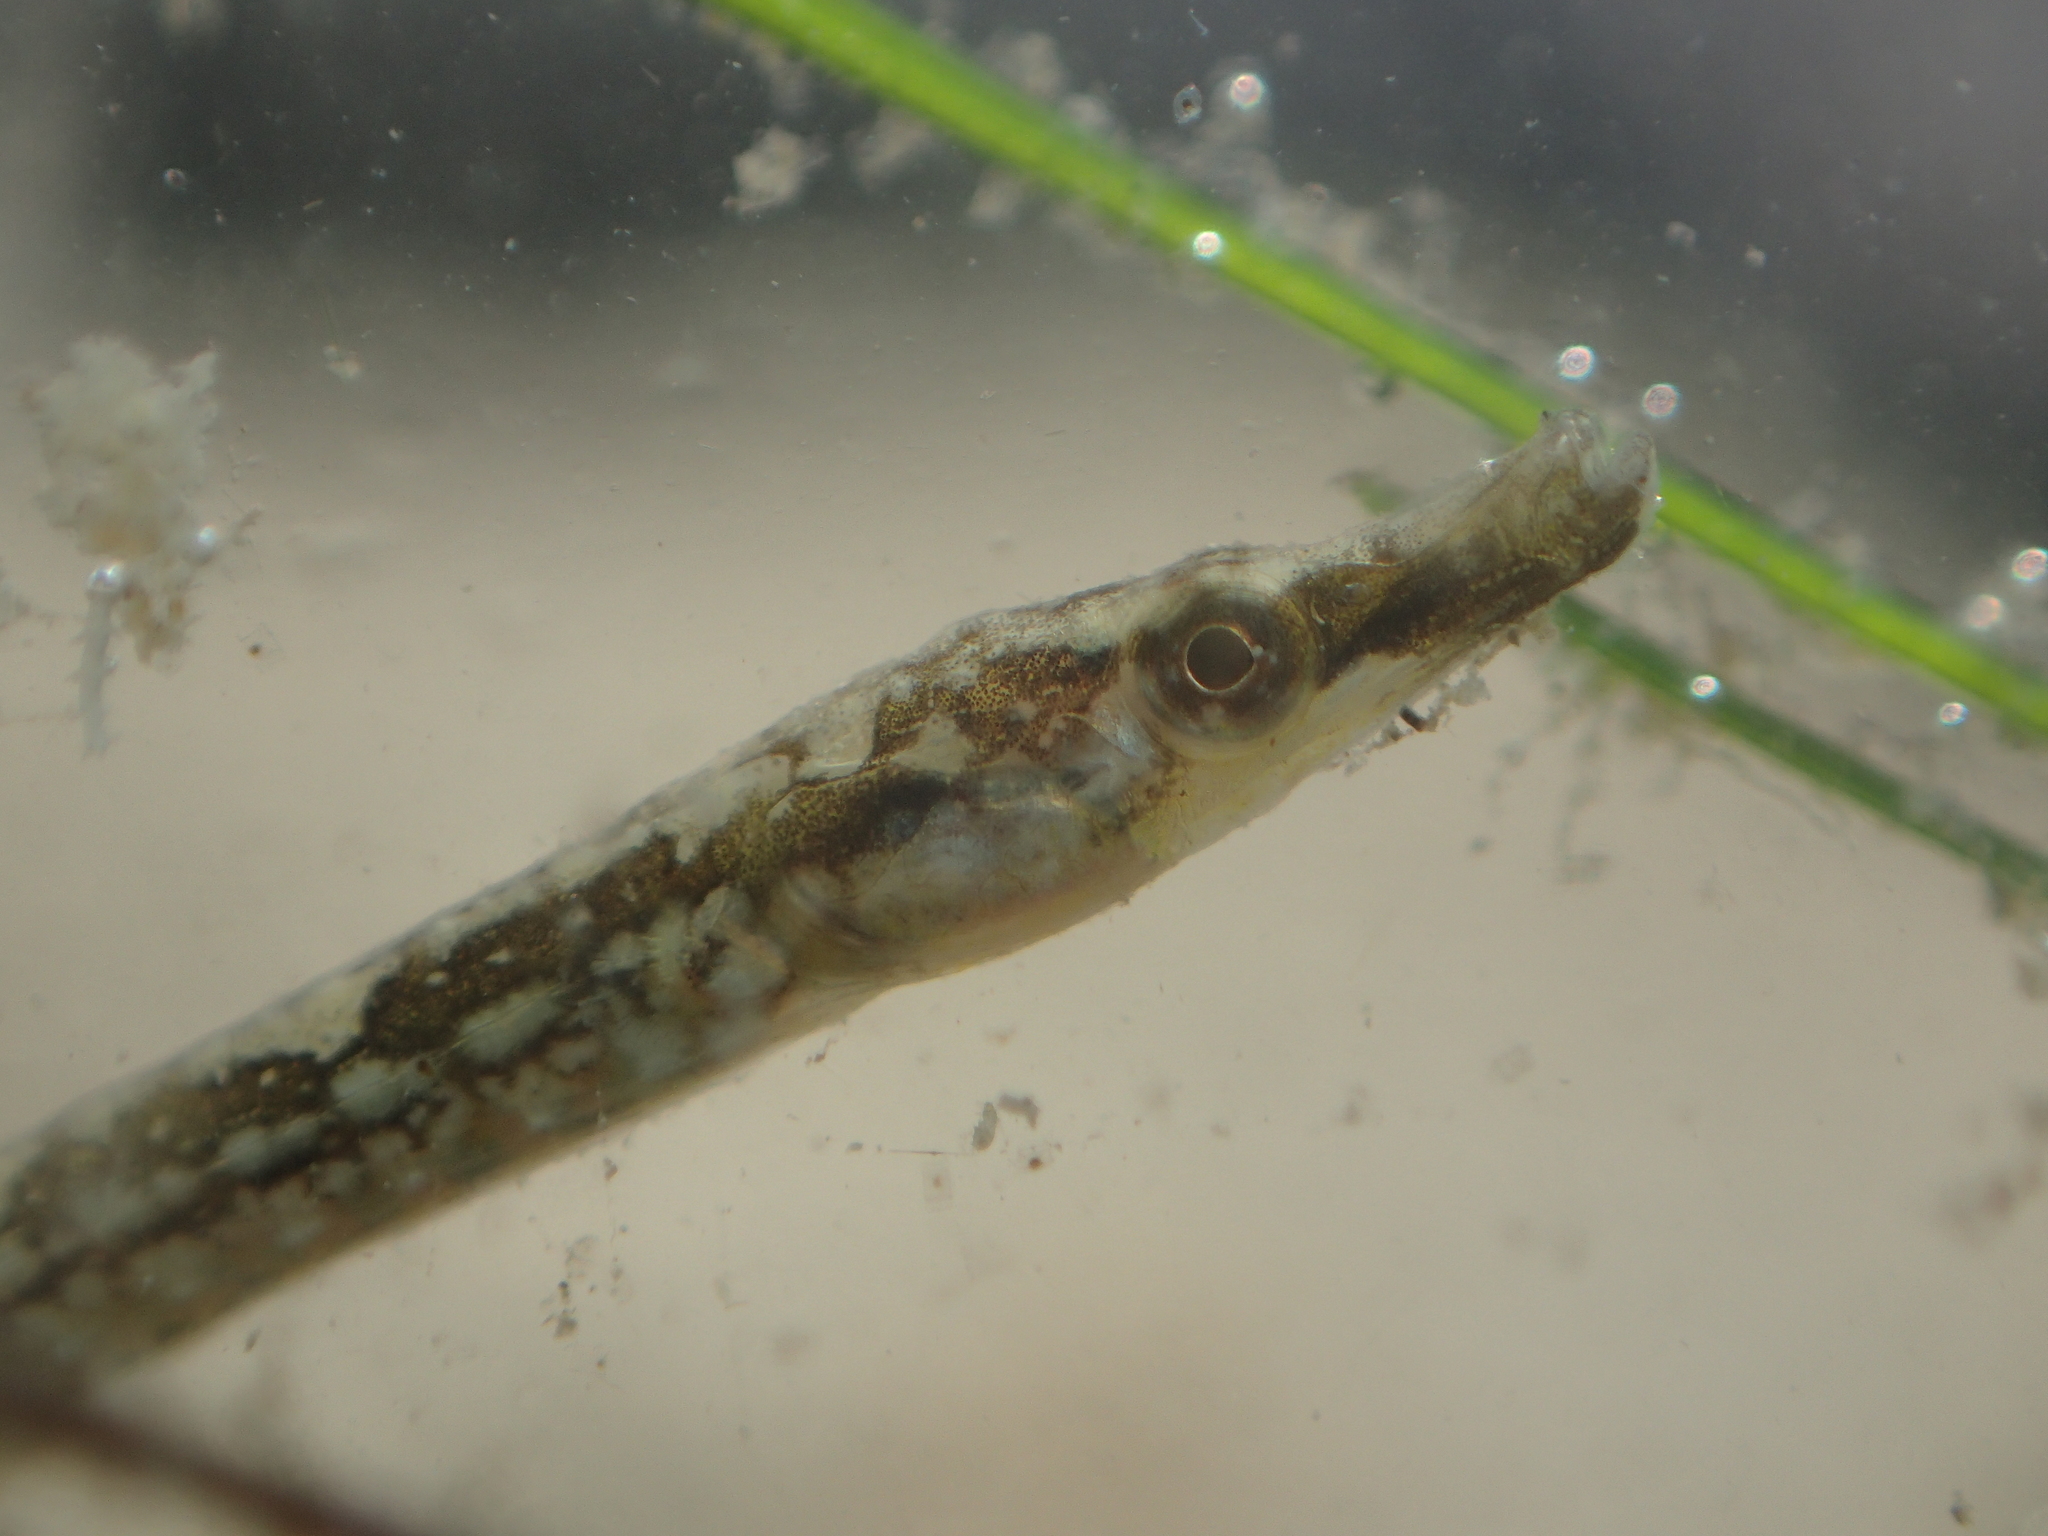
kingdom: Animalia
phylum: Chordata
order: Syngnathiformes
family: Syngnathidae
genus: Syngnathus
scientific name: Syngnathus abaster
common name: Black-striped pipefish
